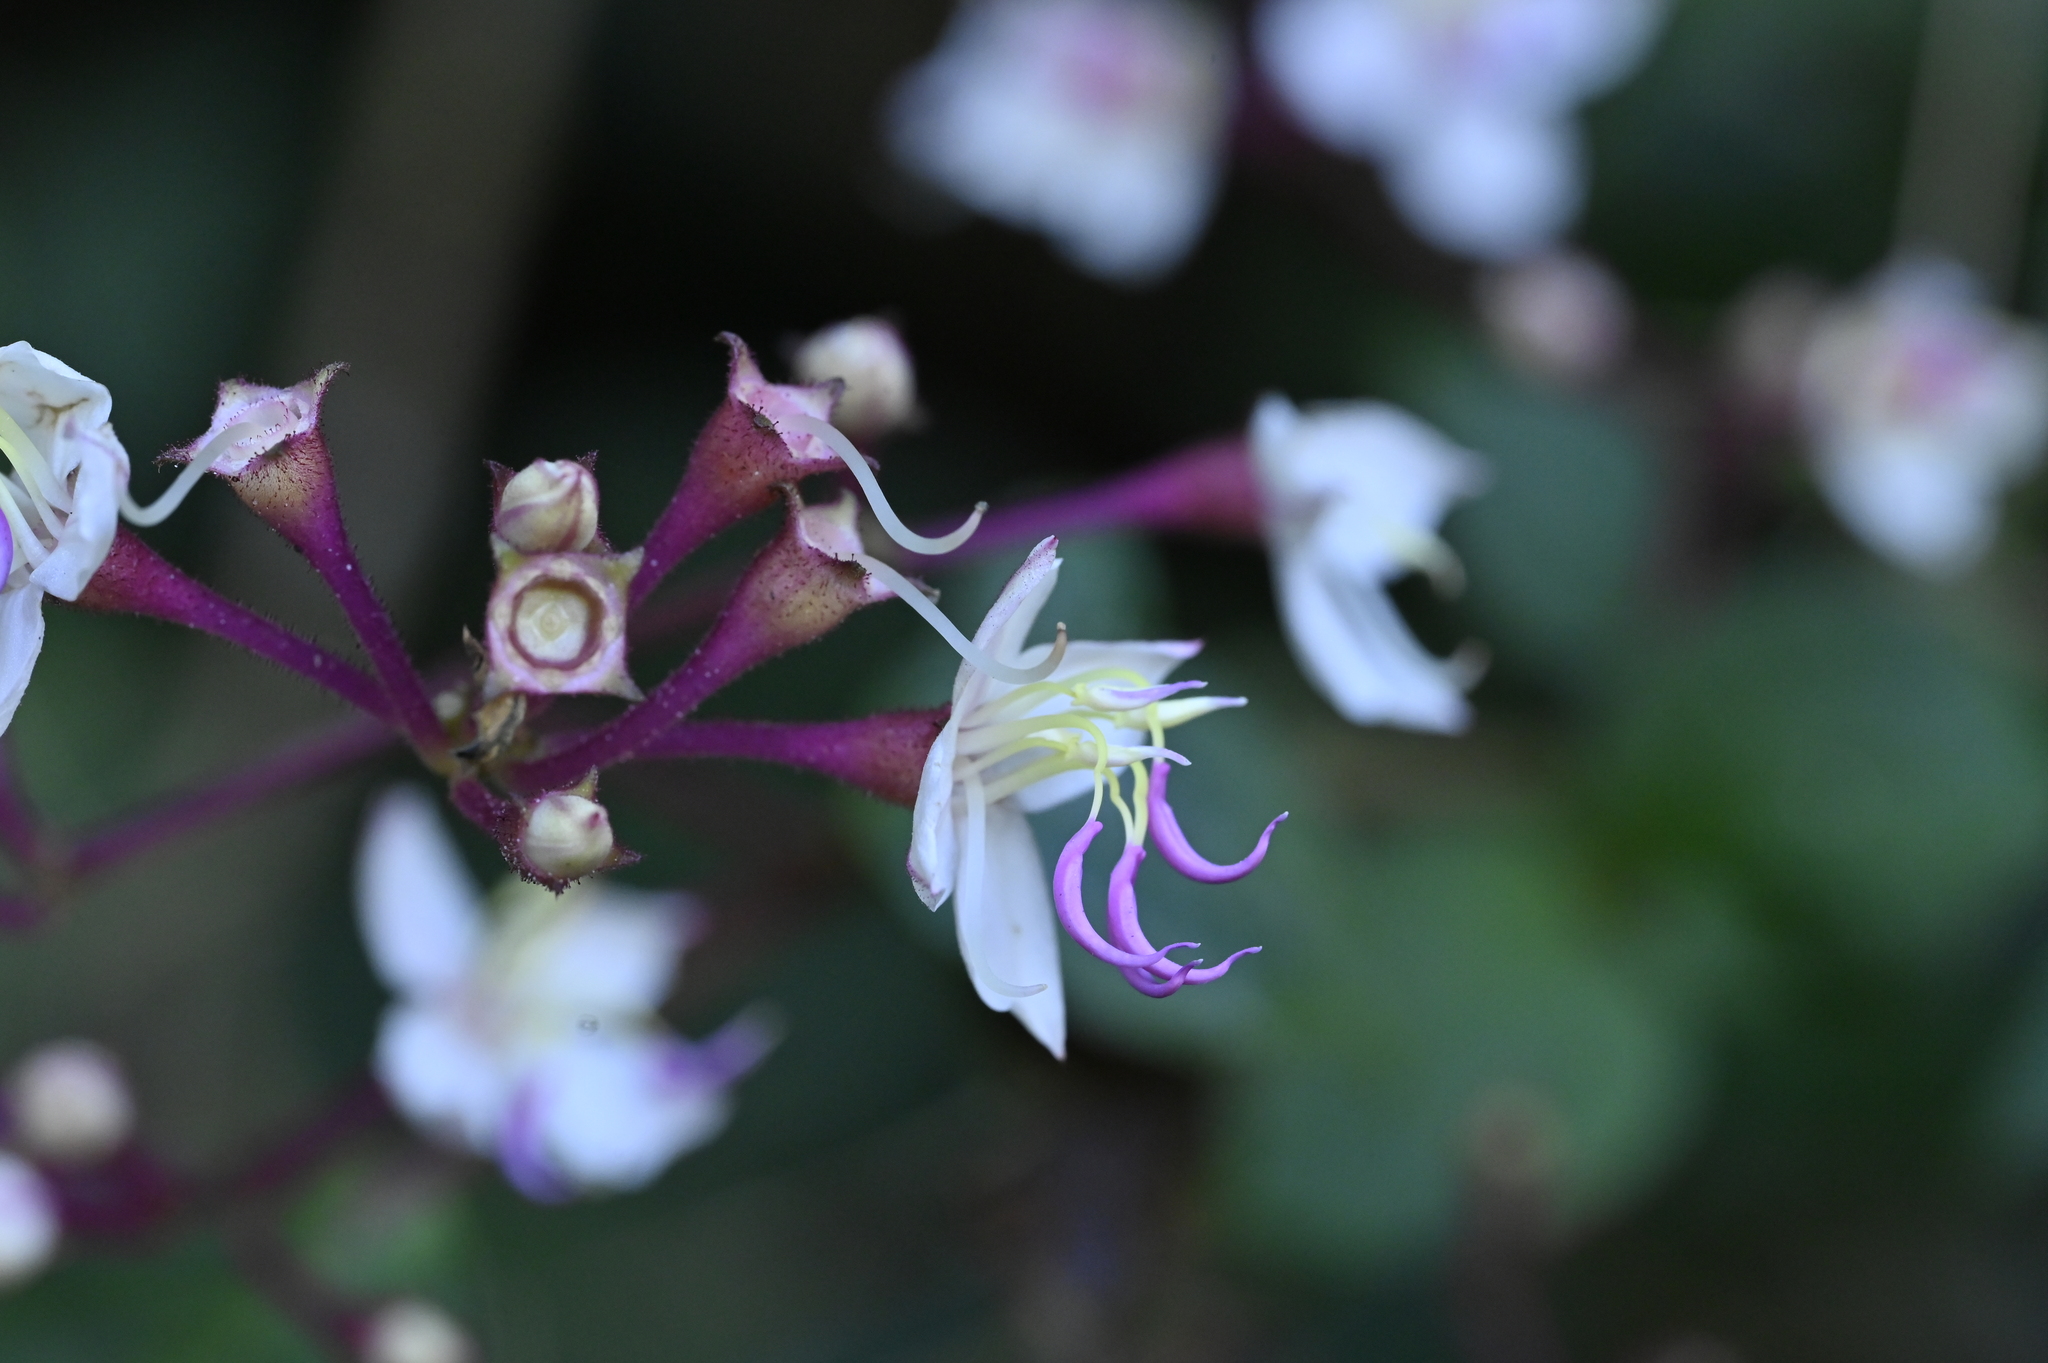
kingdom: Plantae
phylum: Tracheophyta
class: Magnoliopsida
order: Myrtales
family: Melastomataceae
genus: Bredia
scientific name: Bredia hirsuta
